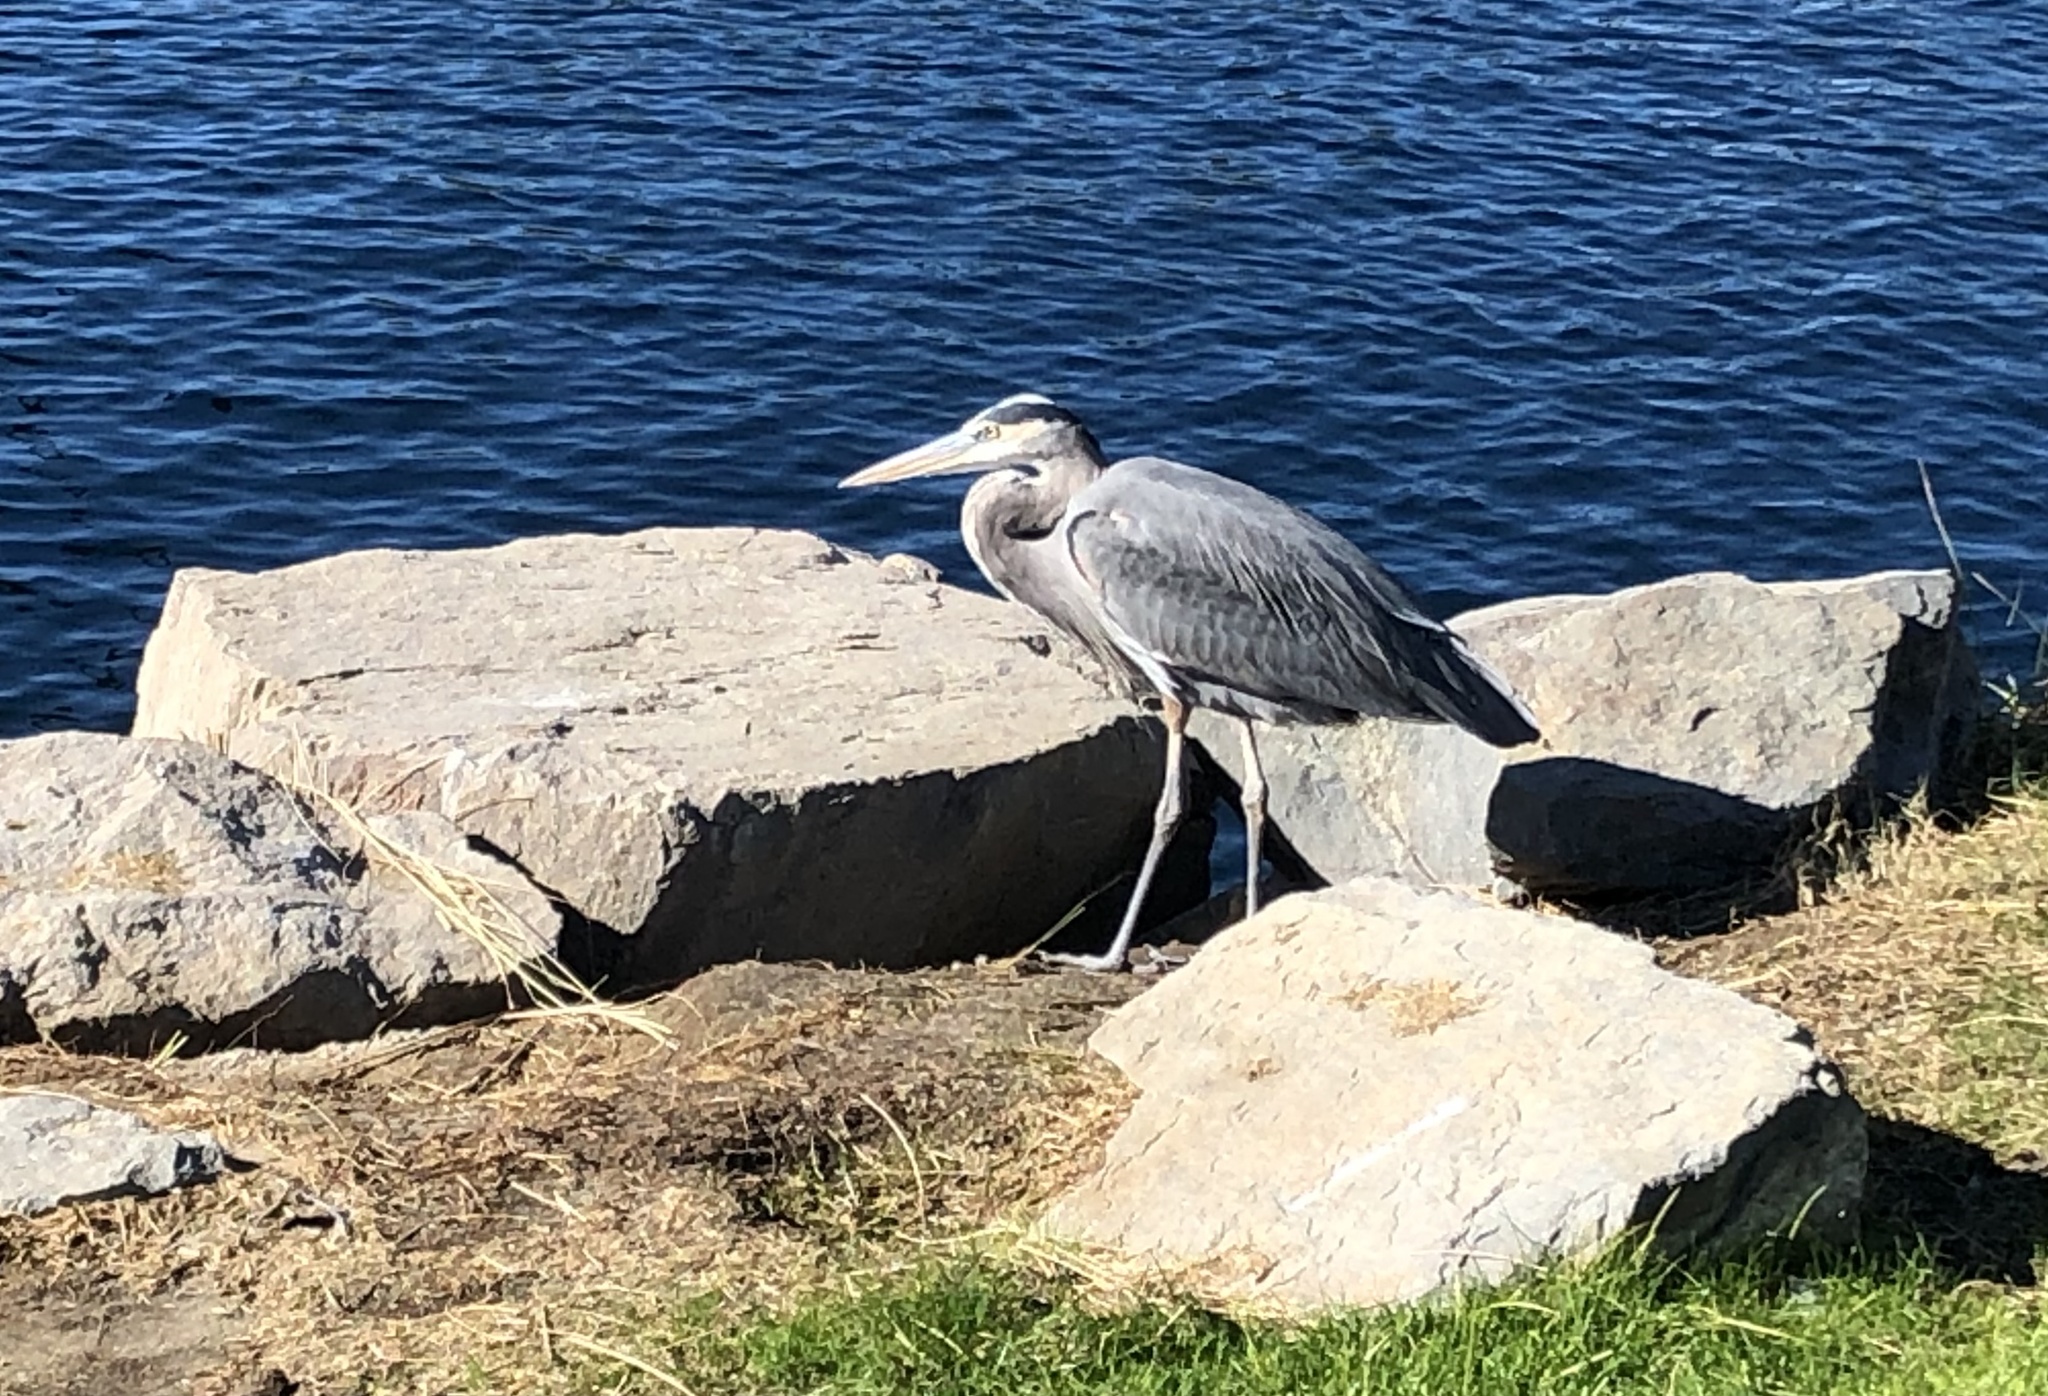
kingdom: Animalia
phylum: Chordata
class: Aves
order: Pelecaniformes
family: Ardeidae
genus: Ardea
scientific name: Ardea herodias
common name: Great blue heron
